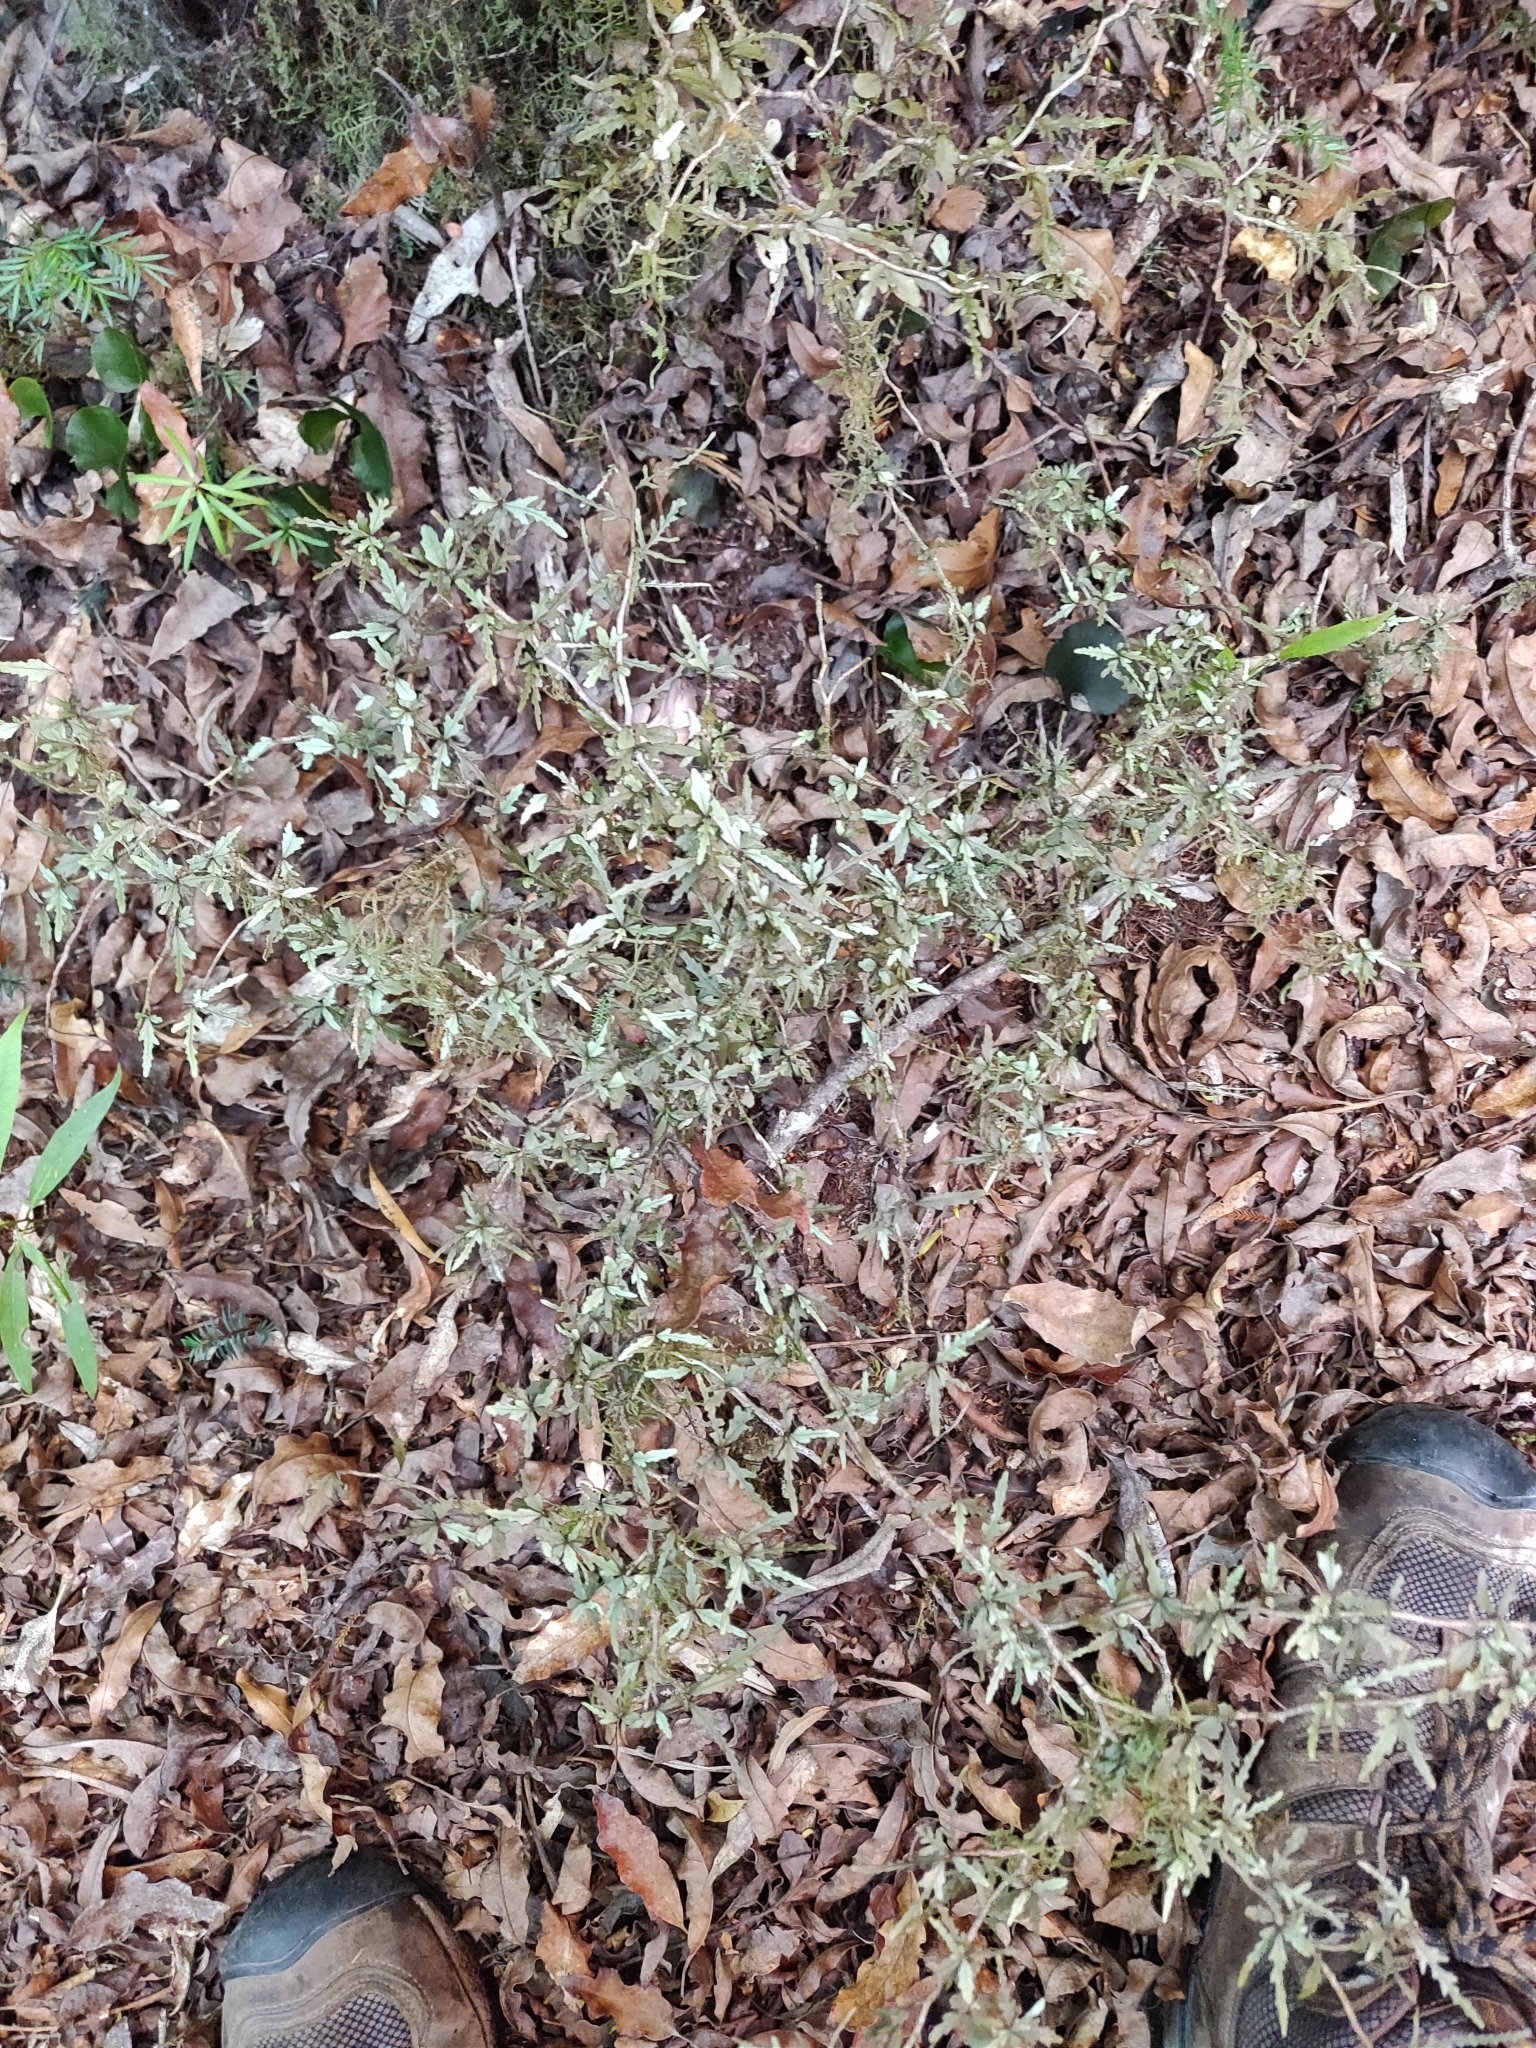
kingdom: Plantae
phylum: Tracheophyta
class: Magnoliopsida
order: Oxalidales
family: Elaeocarpaceae
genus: Elaeocarpus
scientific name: Elaeocarpus hookerianus
